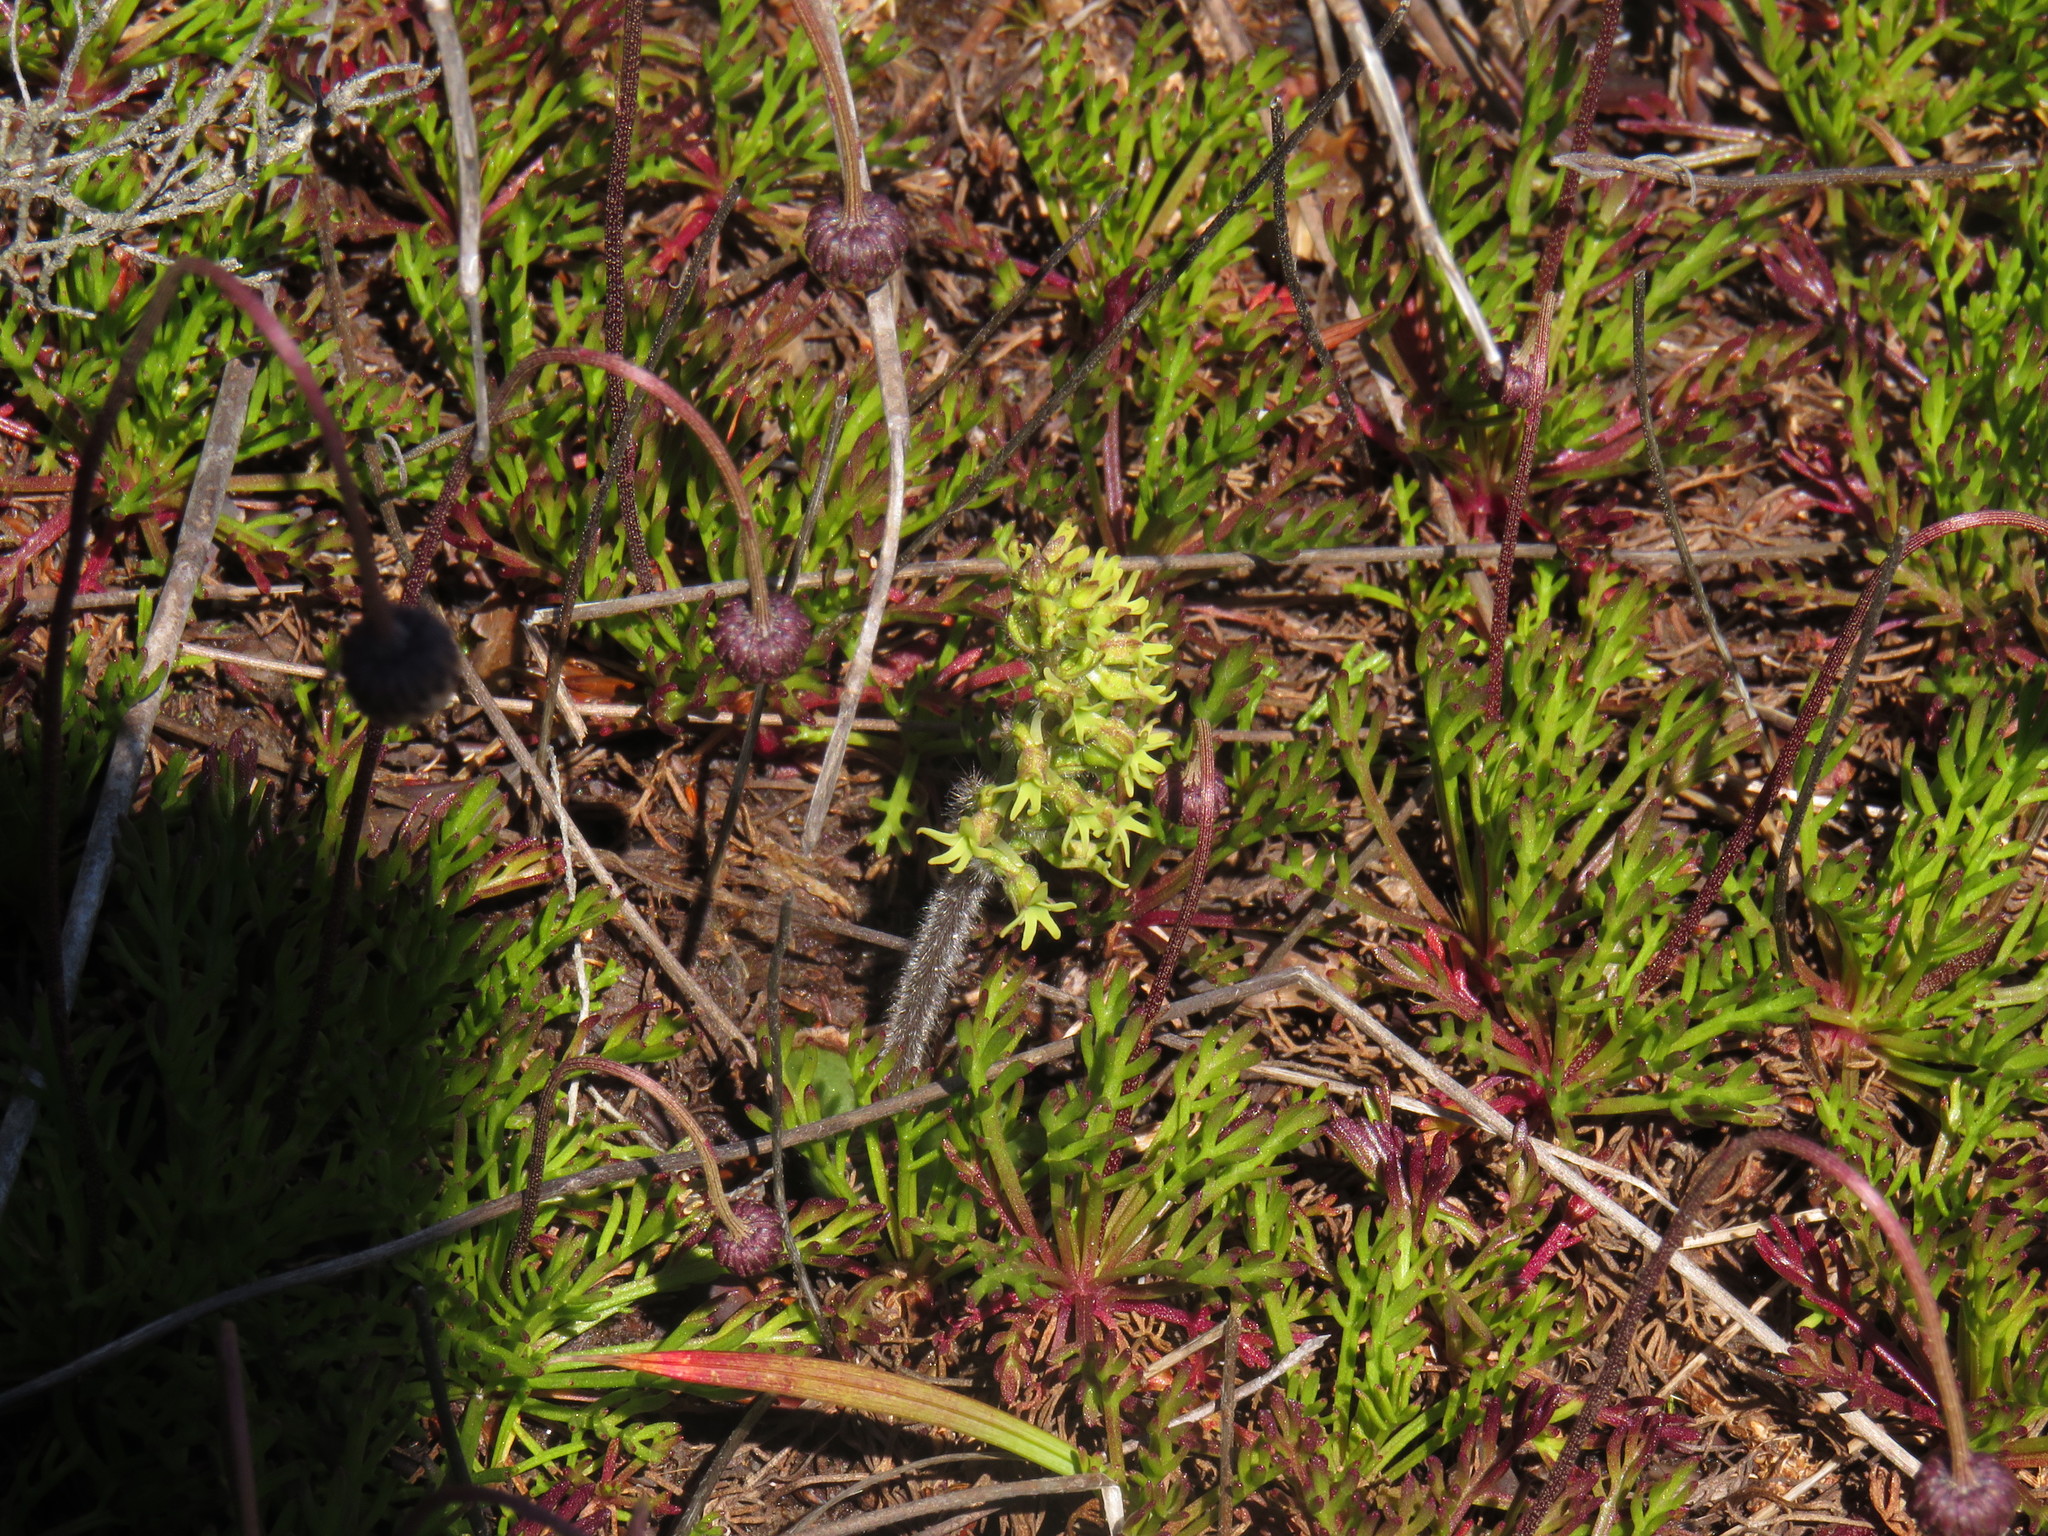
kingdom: Plantae
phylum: Tracheophyta
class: Liliopsida
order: Asparagales
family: Orchidaceae
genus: Holothrix
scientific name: Holothrix condensata
